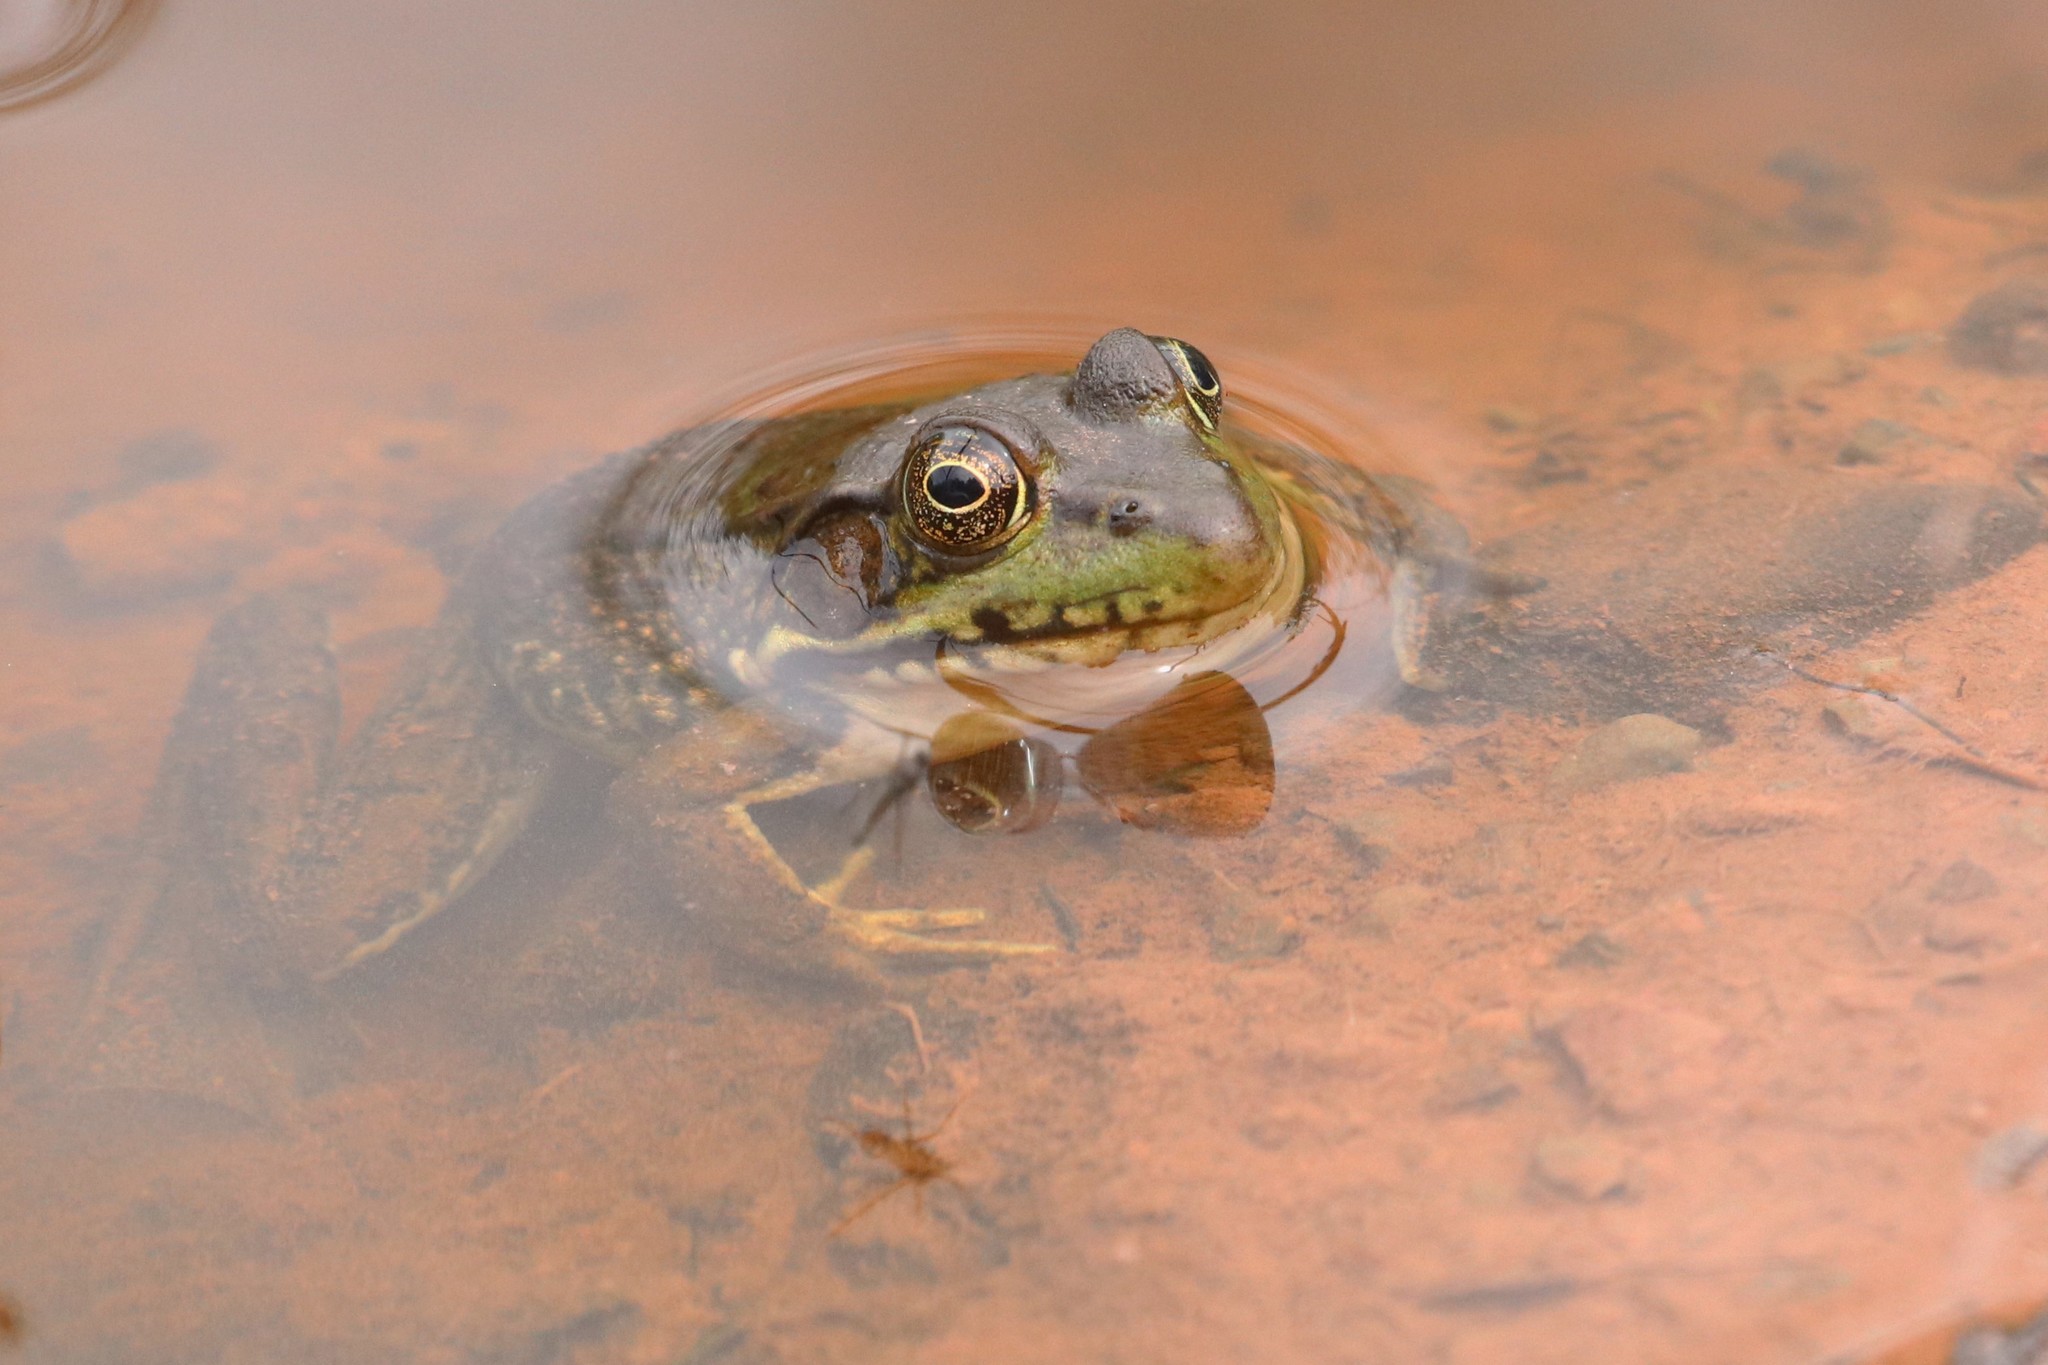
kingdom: Animalia
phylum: Chordata
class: Amphibia
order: Anura
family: Ranidae
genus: Lithobates
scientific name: Lithobates clamitans
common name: Green frog
